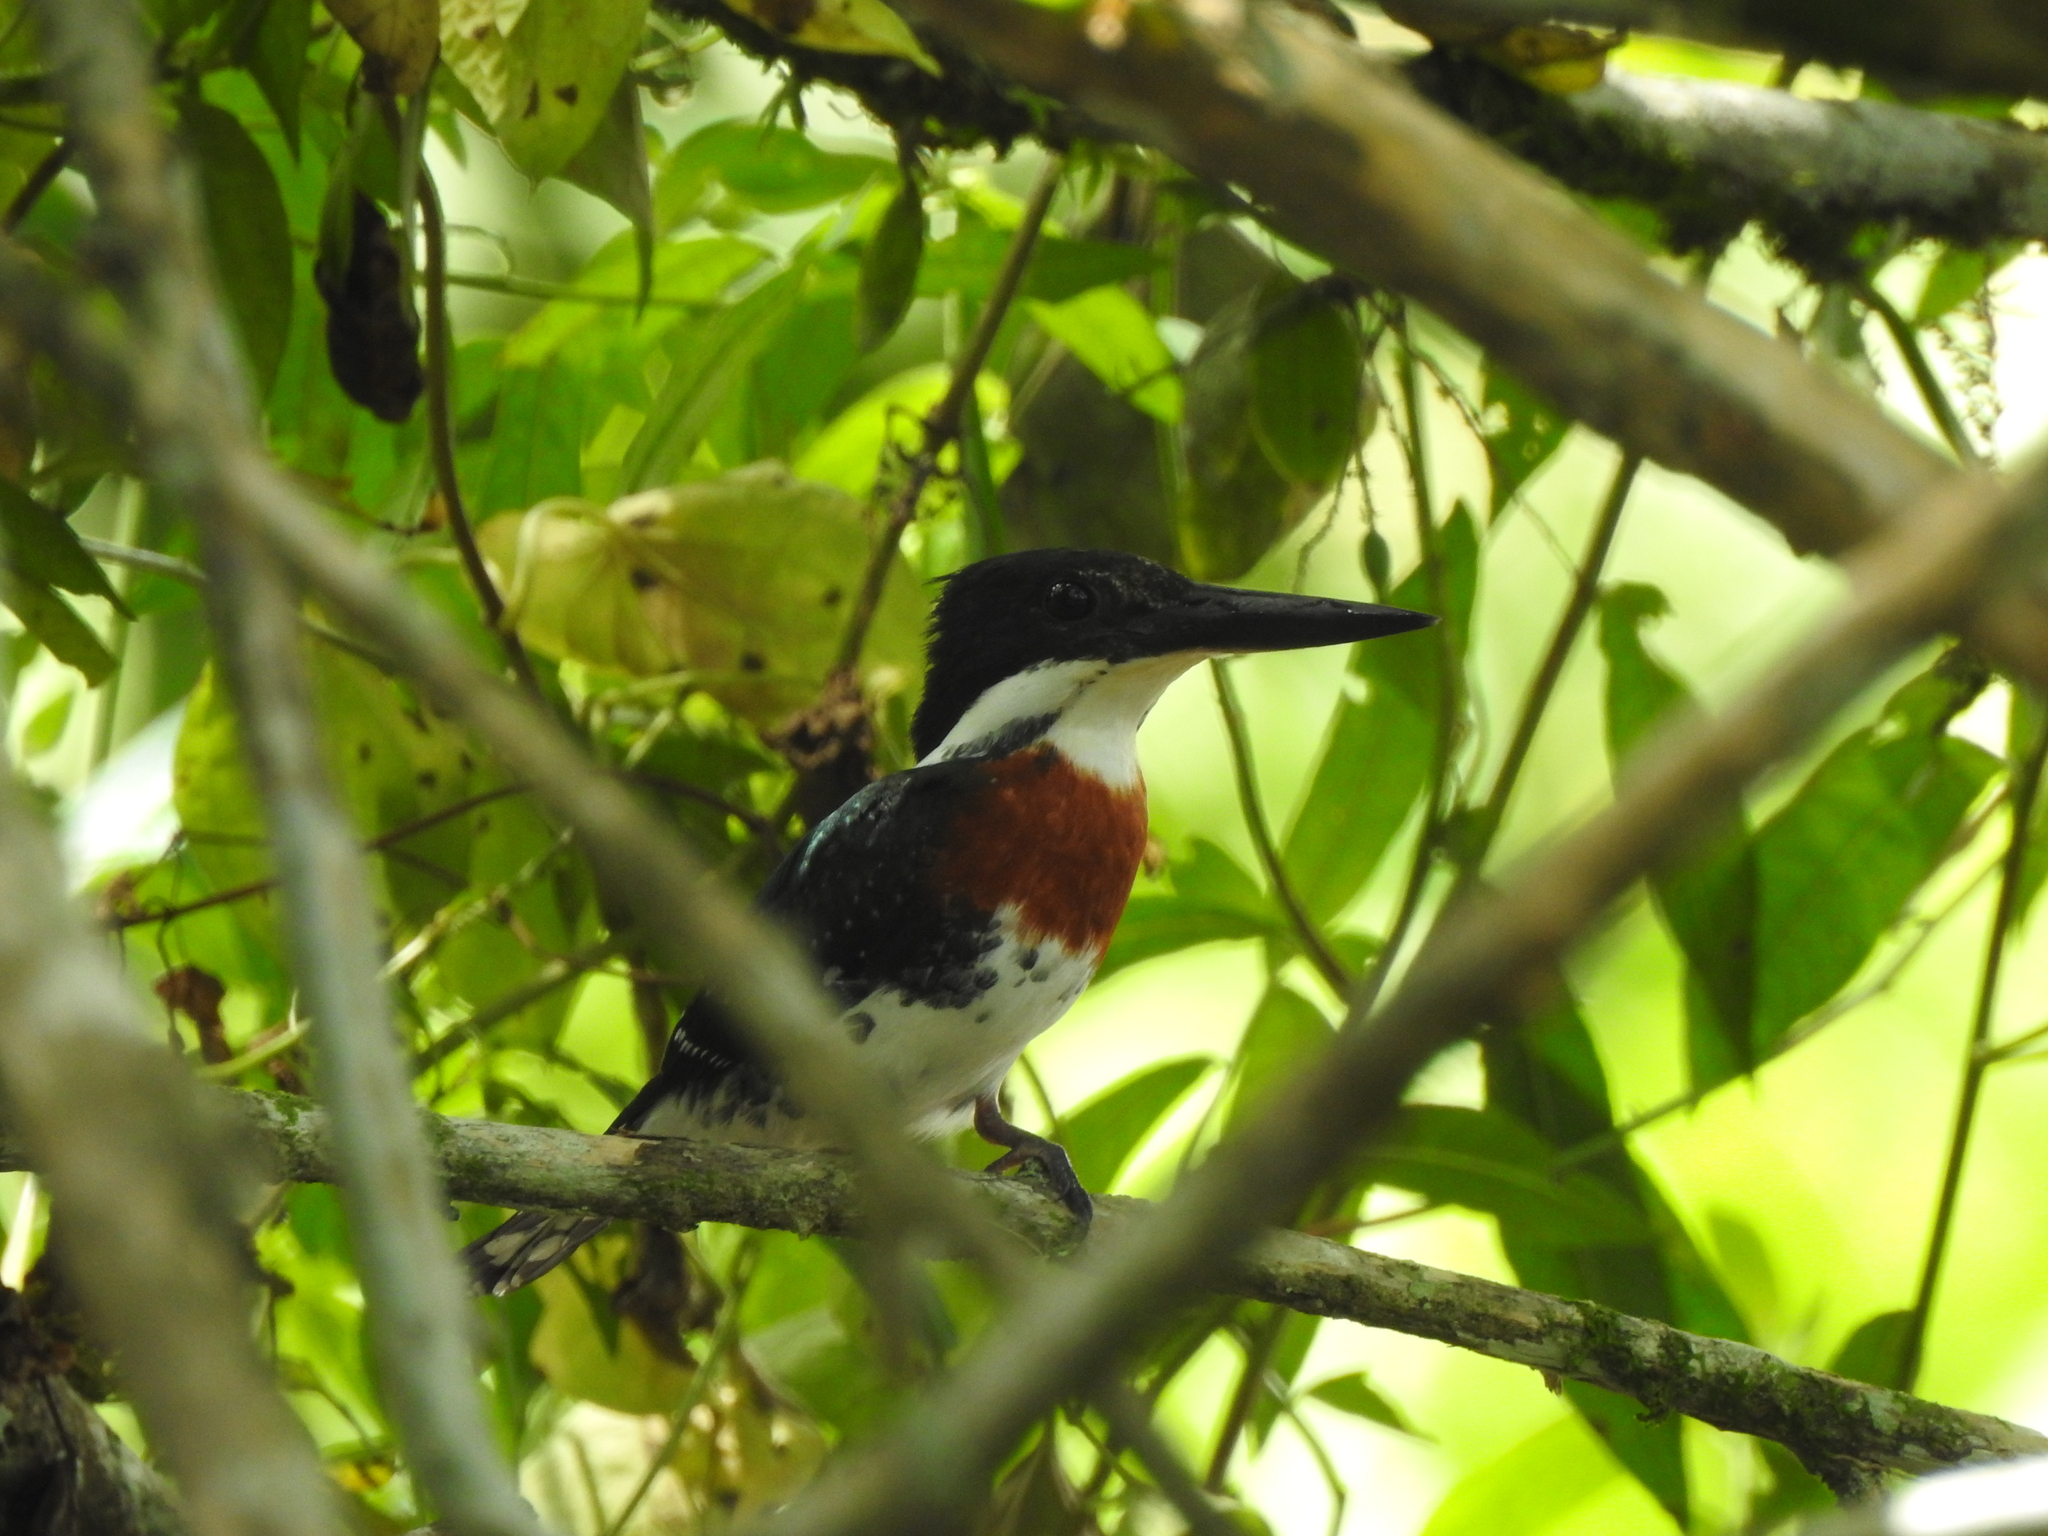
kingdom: Animalia
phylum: Chordata
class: Aves
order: Coraciiformes
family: Alcedinidae
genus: Chloroceryle
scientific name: Chloroceryle americana
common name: Green kingfisher
